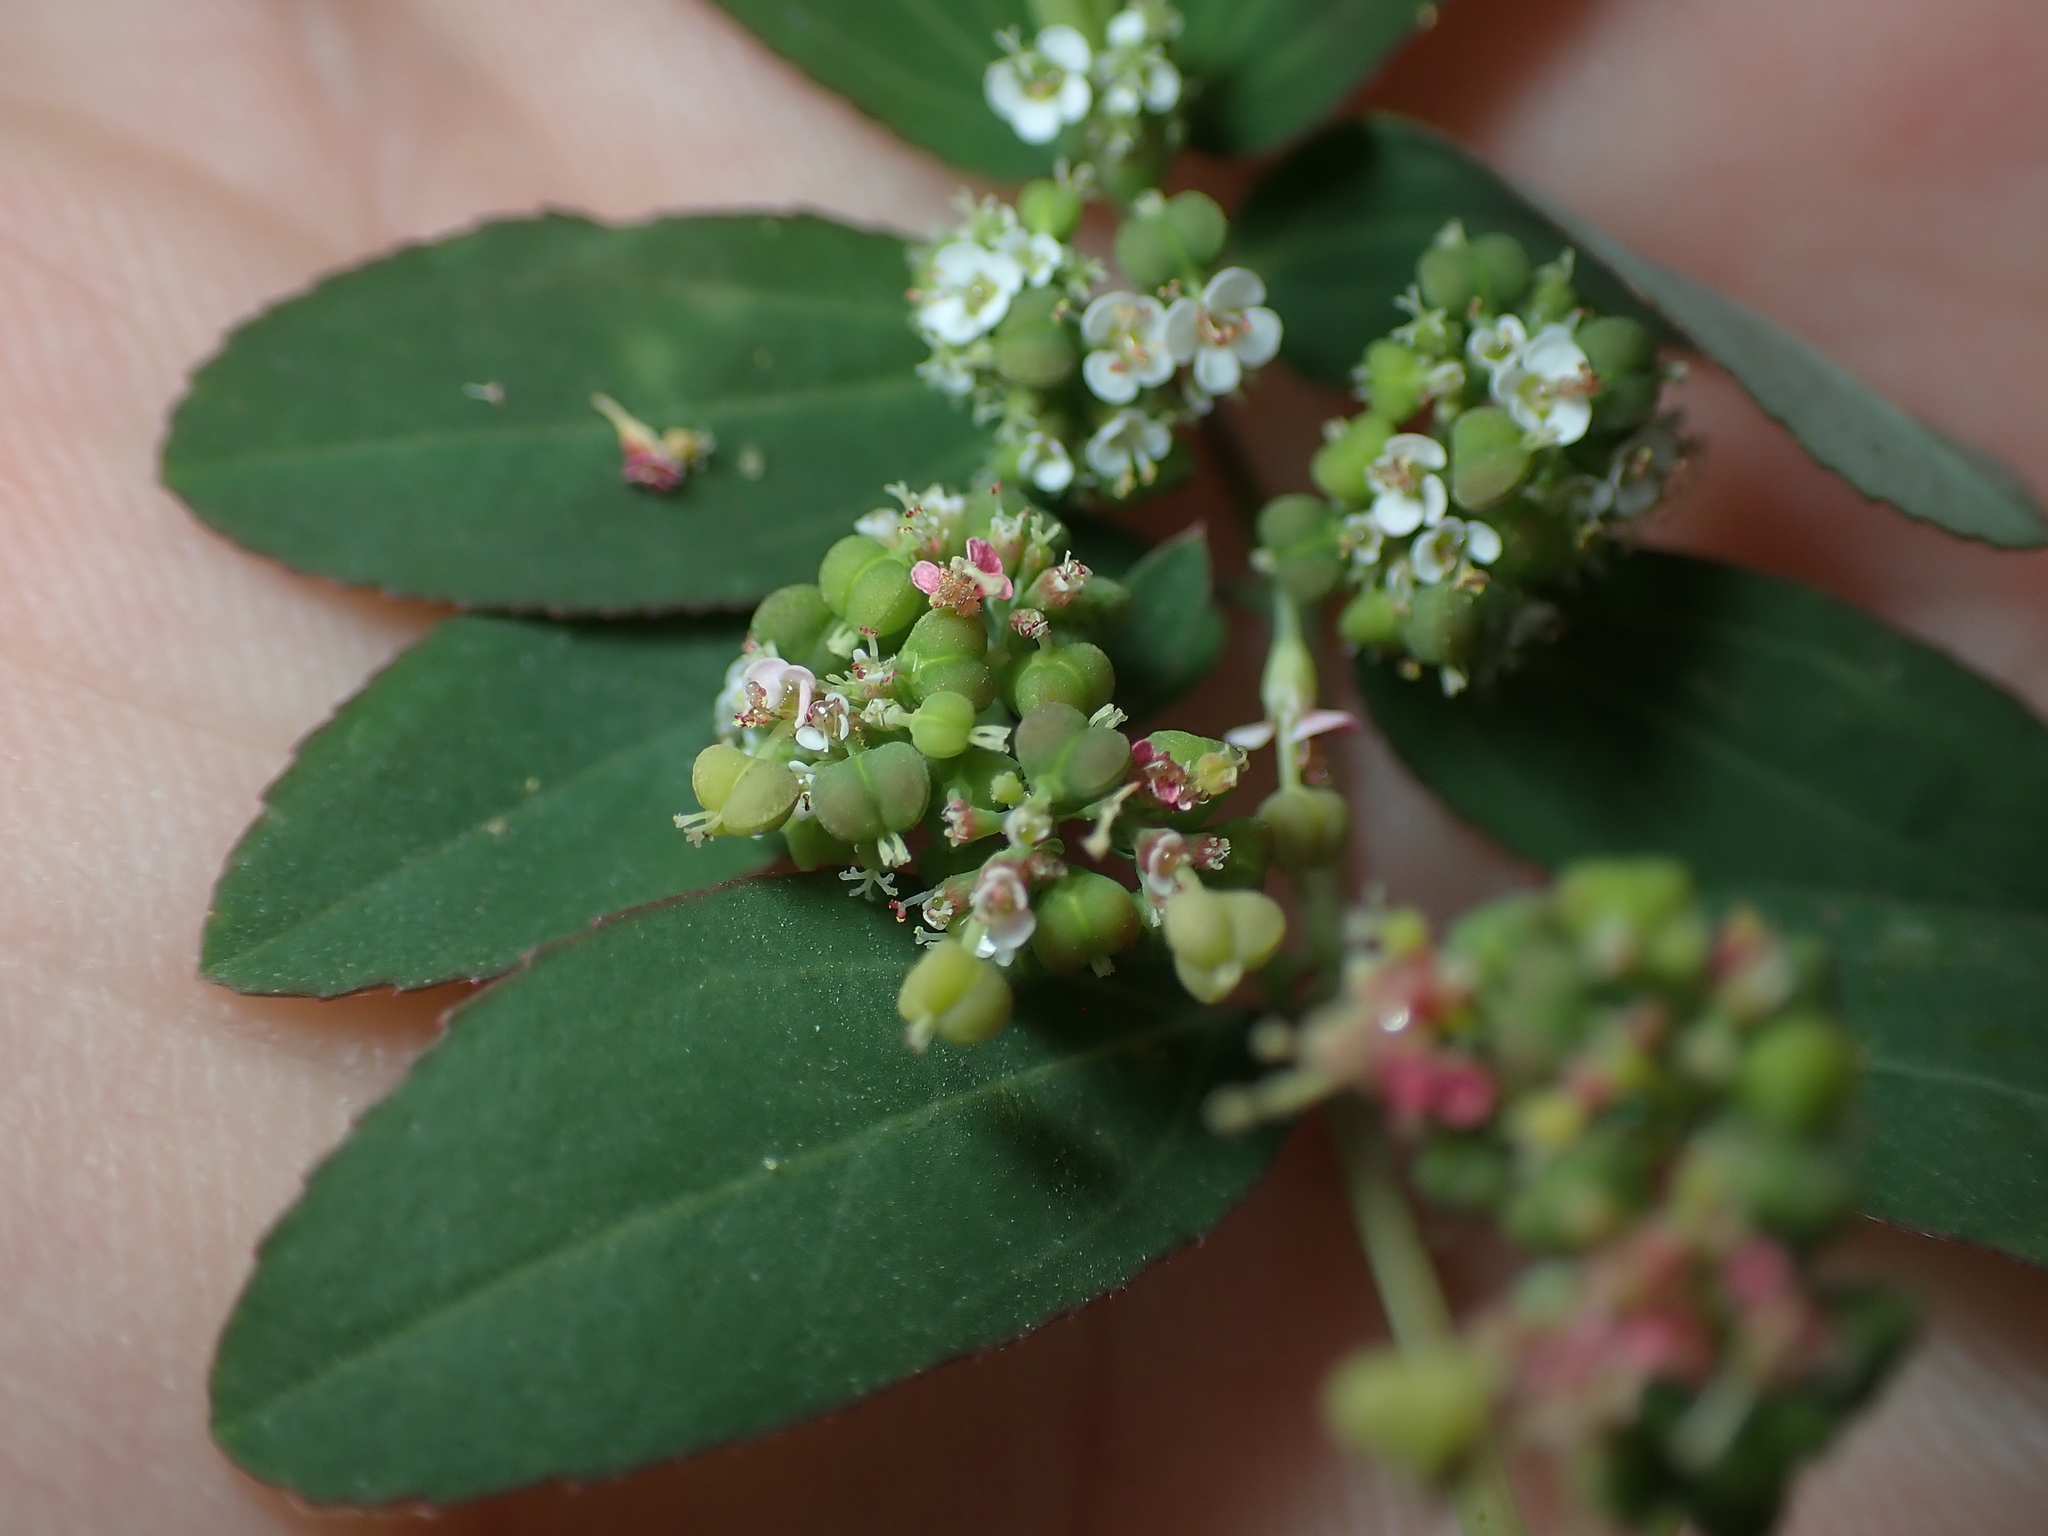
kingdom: Plantae
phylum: Tracheophyta
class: Magnoliopsida
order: Malpighiales
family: Euphorbiaceae
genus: Euphorbia
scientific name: Euphorbia hypericifolia
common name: Graceful sandmat
